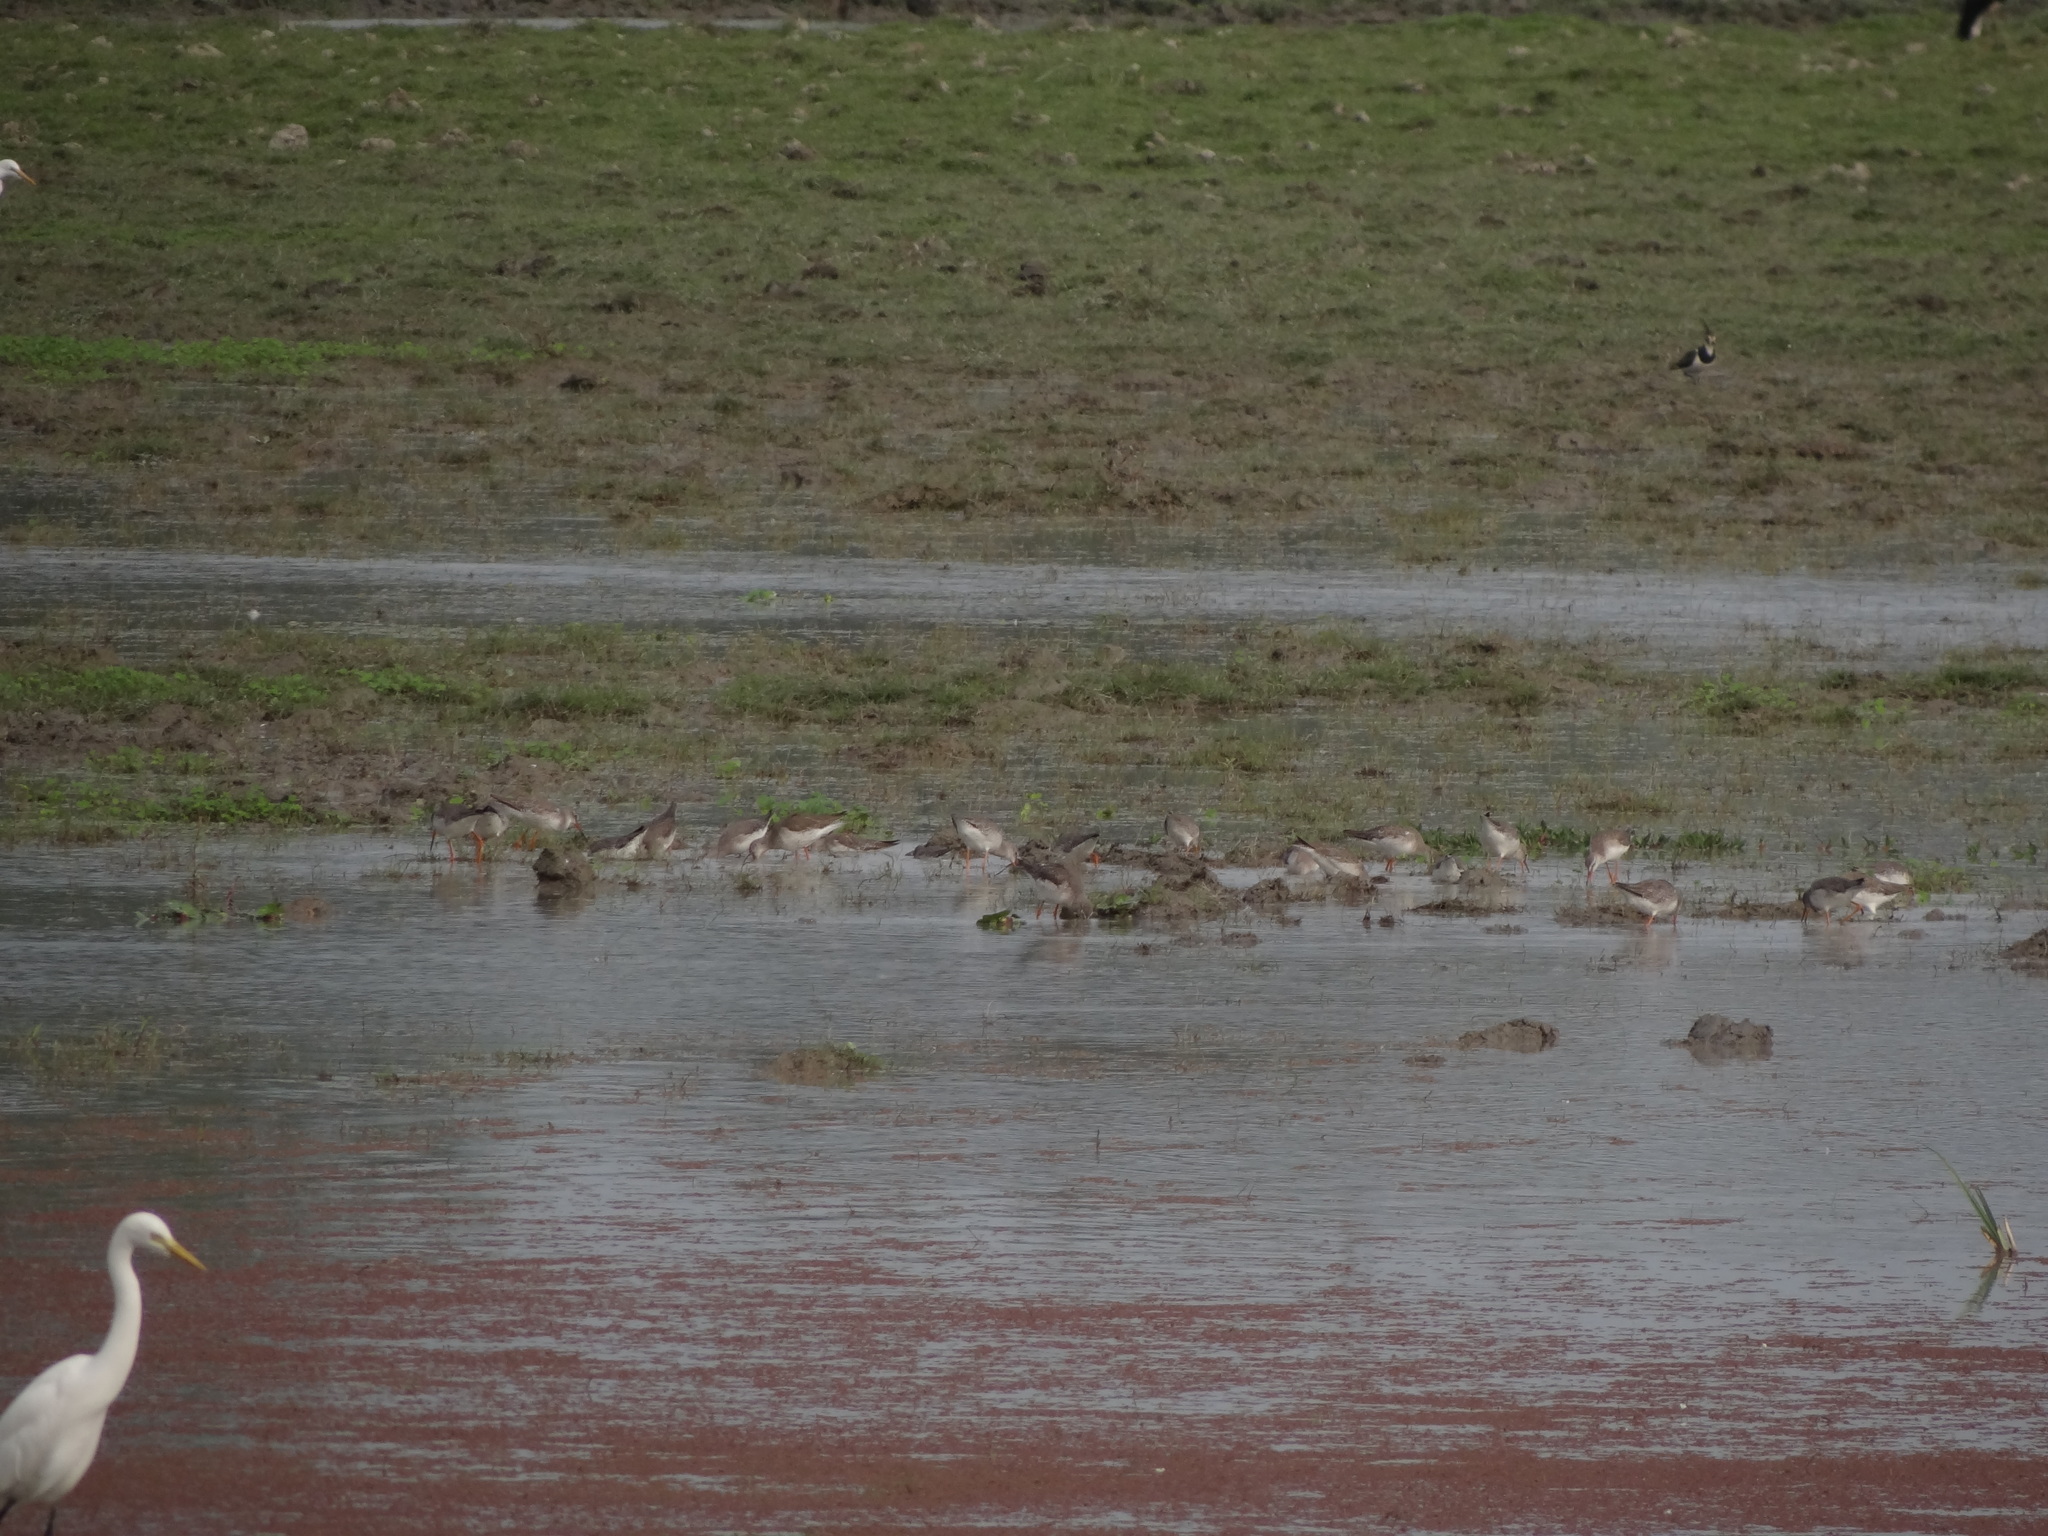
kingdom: Animalia
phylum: Chordata
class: Aves
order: Charadriiformes
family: Scolopacidae
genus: Tringa
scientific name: Tringa erythropus
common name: Spotted redshank
